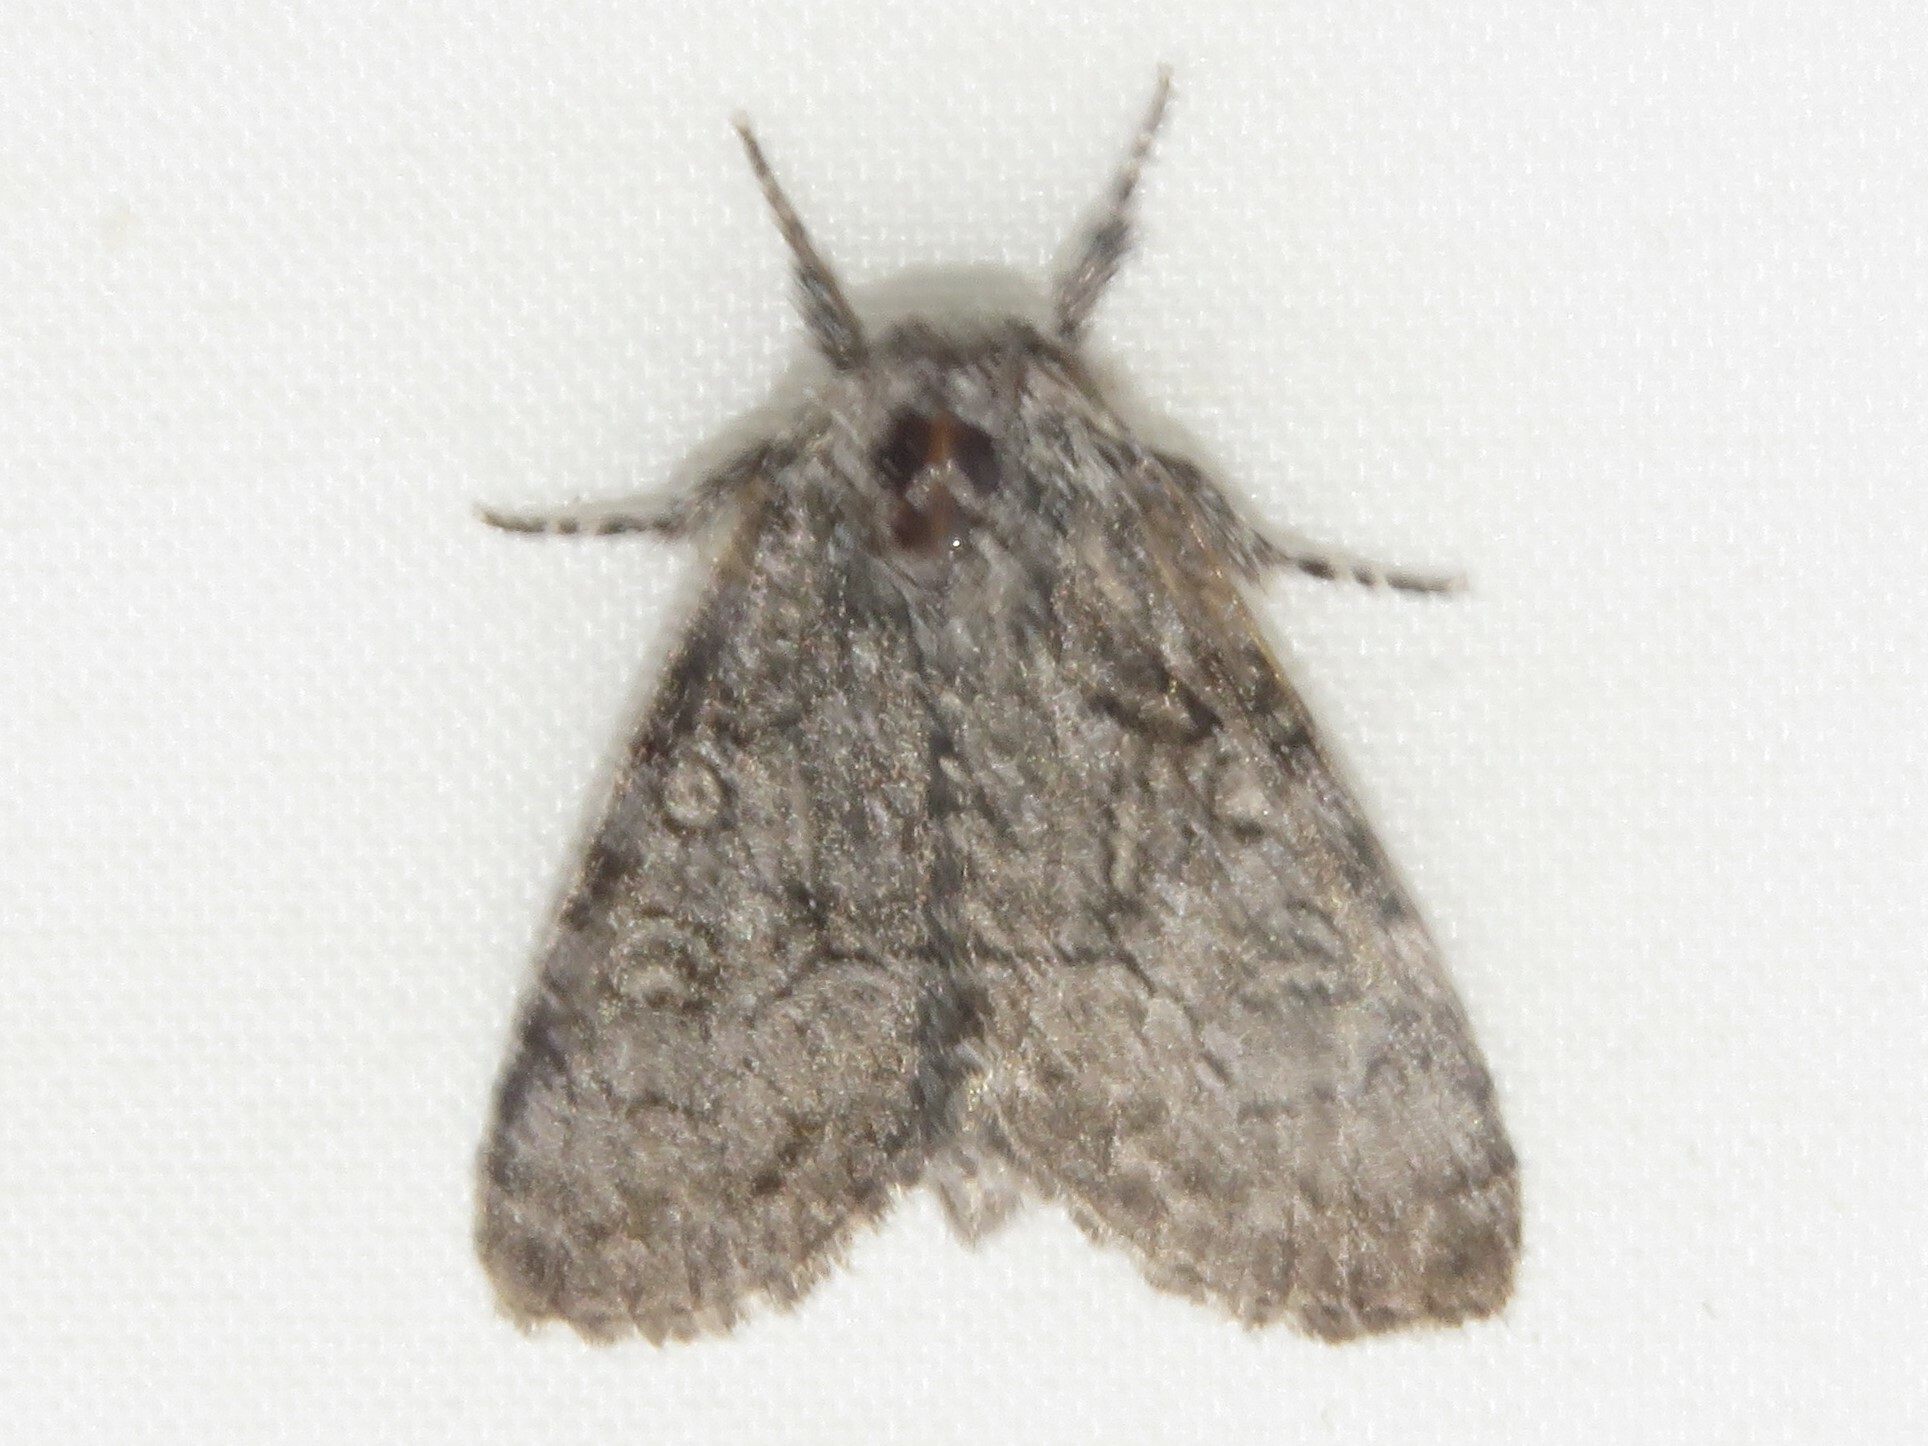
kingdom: Animalia
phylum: Arthropoda
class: Insecta
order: Lepidoptera
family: Noctuidae
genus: Raphia
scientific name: Raphia frater
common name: Brother
